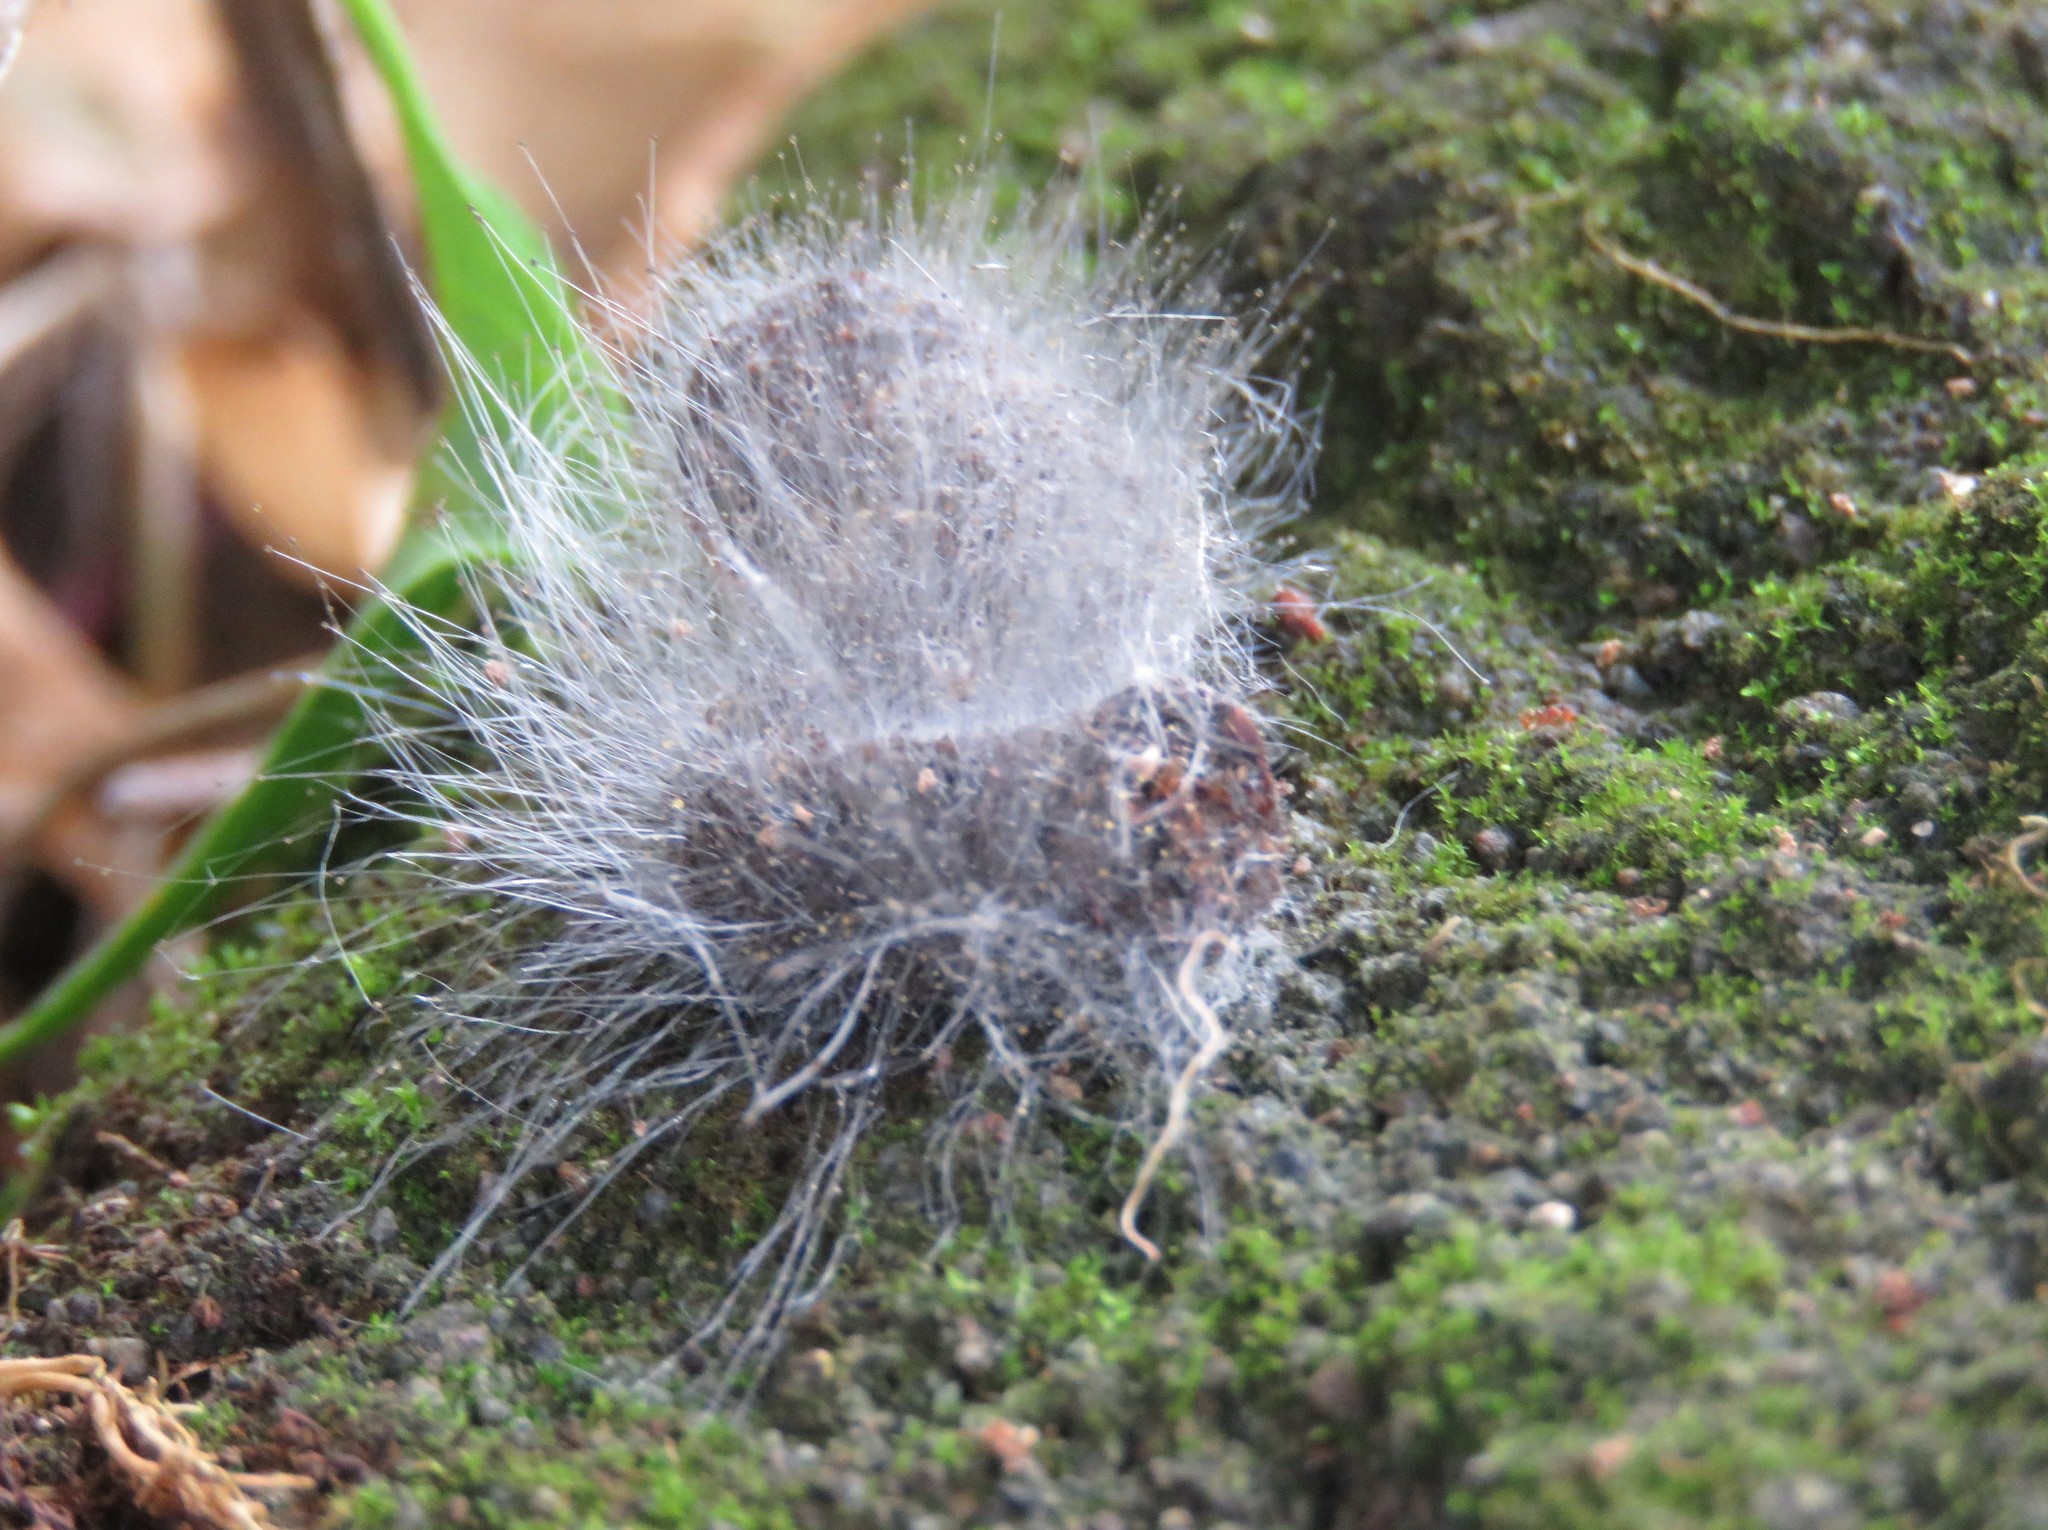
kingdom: Fungi
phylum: Mucoromycota
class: Mucoromycetes
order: Mucorales
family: Phycomycetaceae
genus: Spinellus
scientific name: Spinellus fusiger
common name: Bonnet mould
